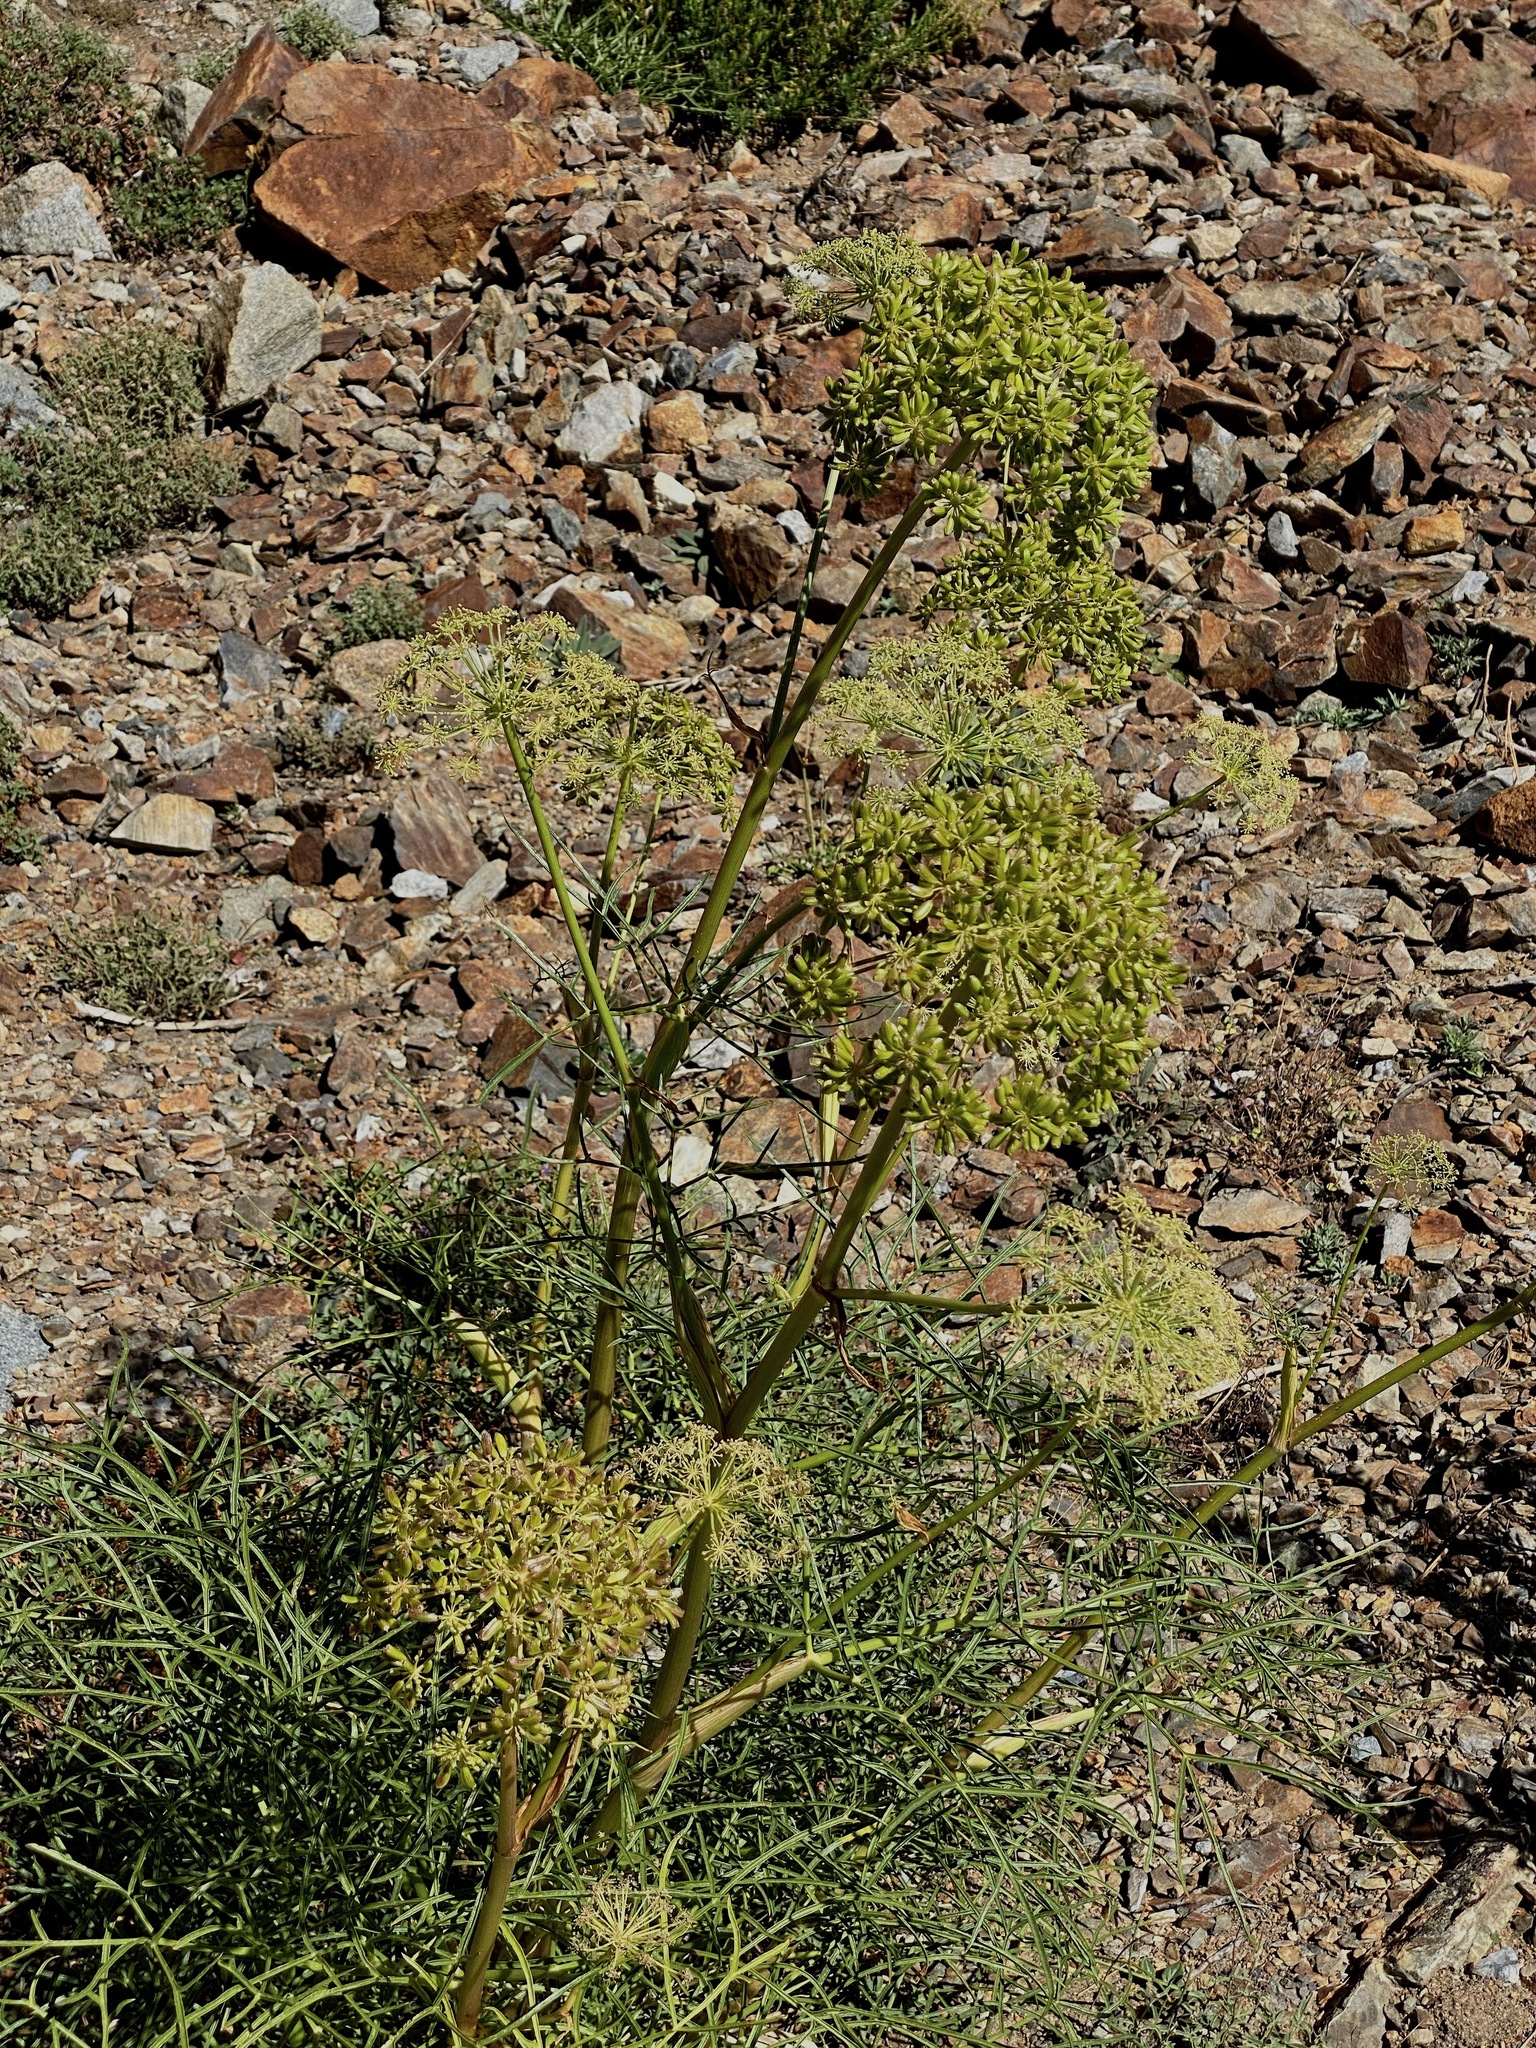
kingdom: Plantae
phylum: Tracheophyta
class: Magnoliopsida
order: Apiales
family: Apiaceae
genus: Angelica
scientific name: Angelica lineariloba
